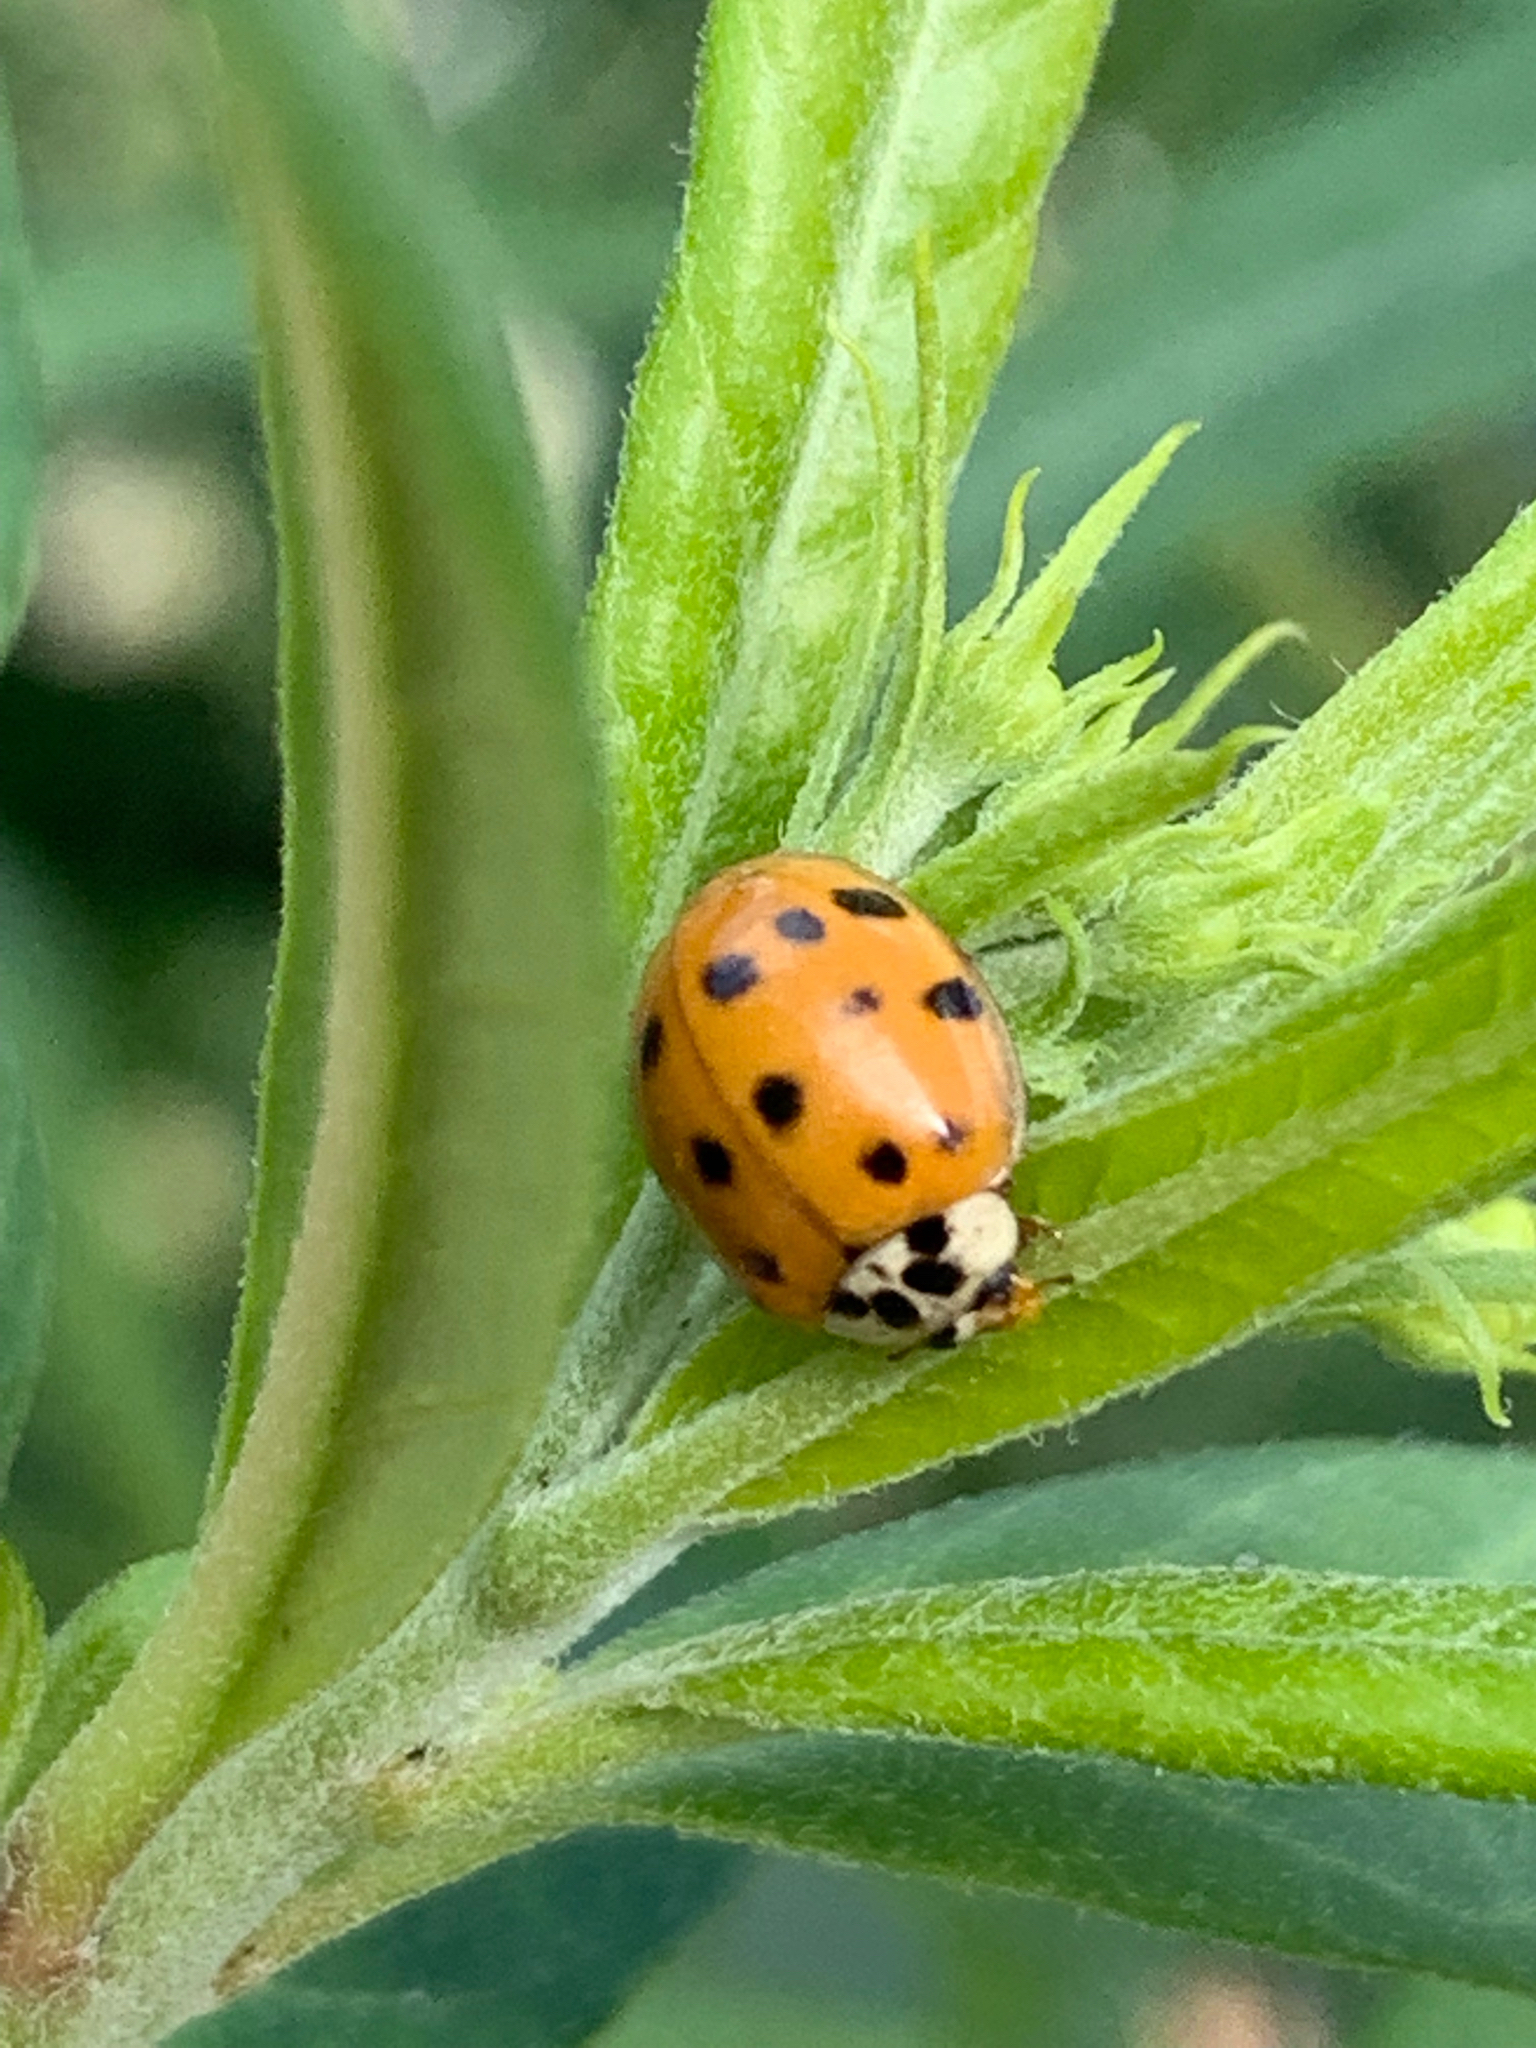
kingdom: Animalia
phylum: Arthropoda
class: Insecta
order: Coleoptera
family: Coccinellidae
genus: Harmonia
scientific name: Harmonia axyridis
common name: Harlequin ladybird
